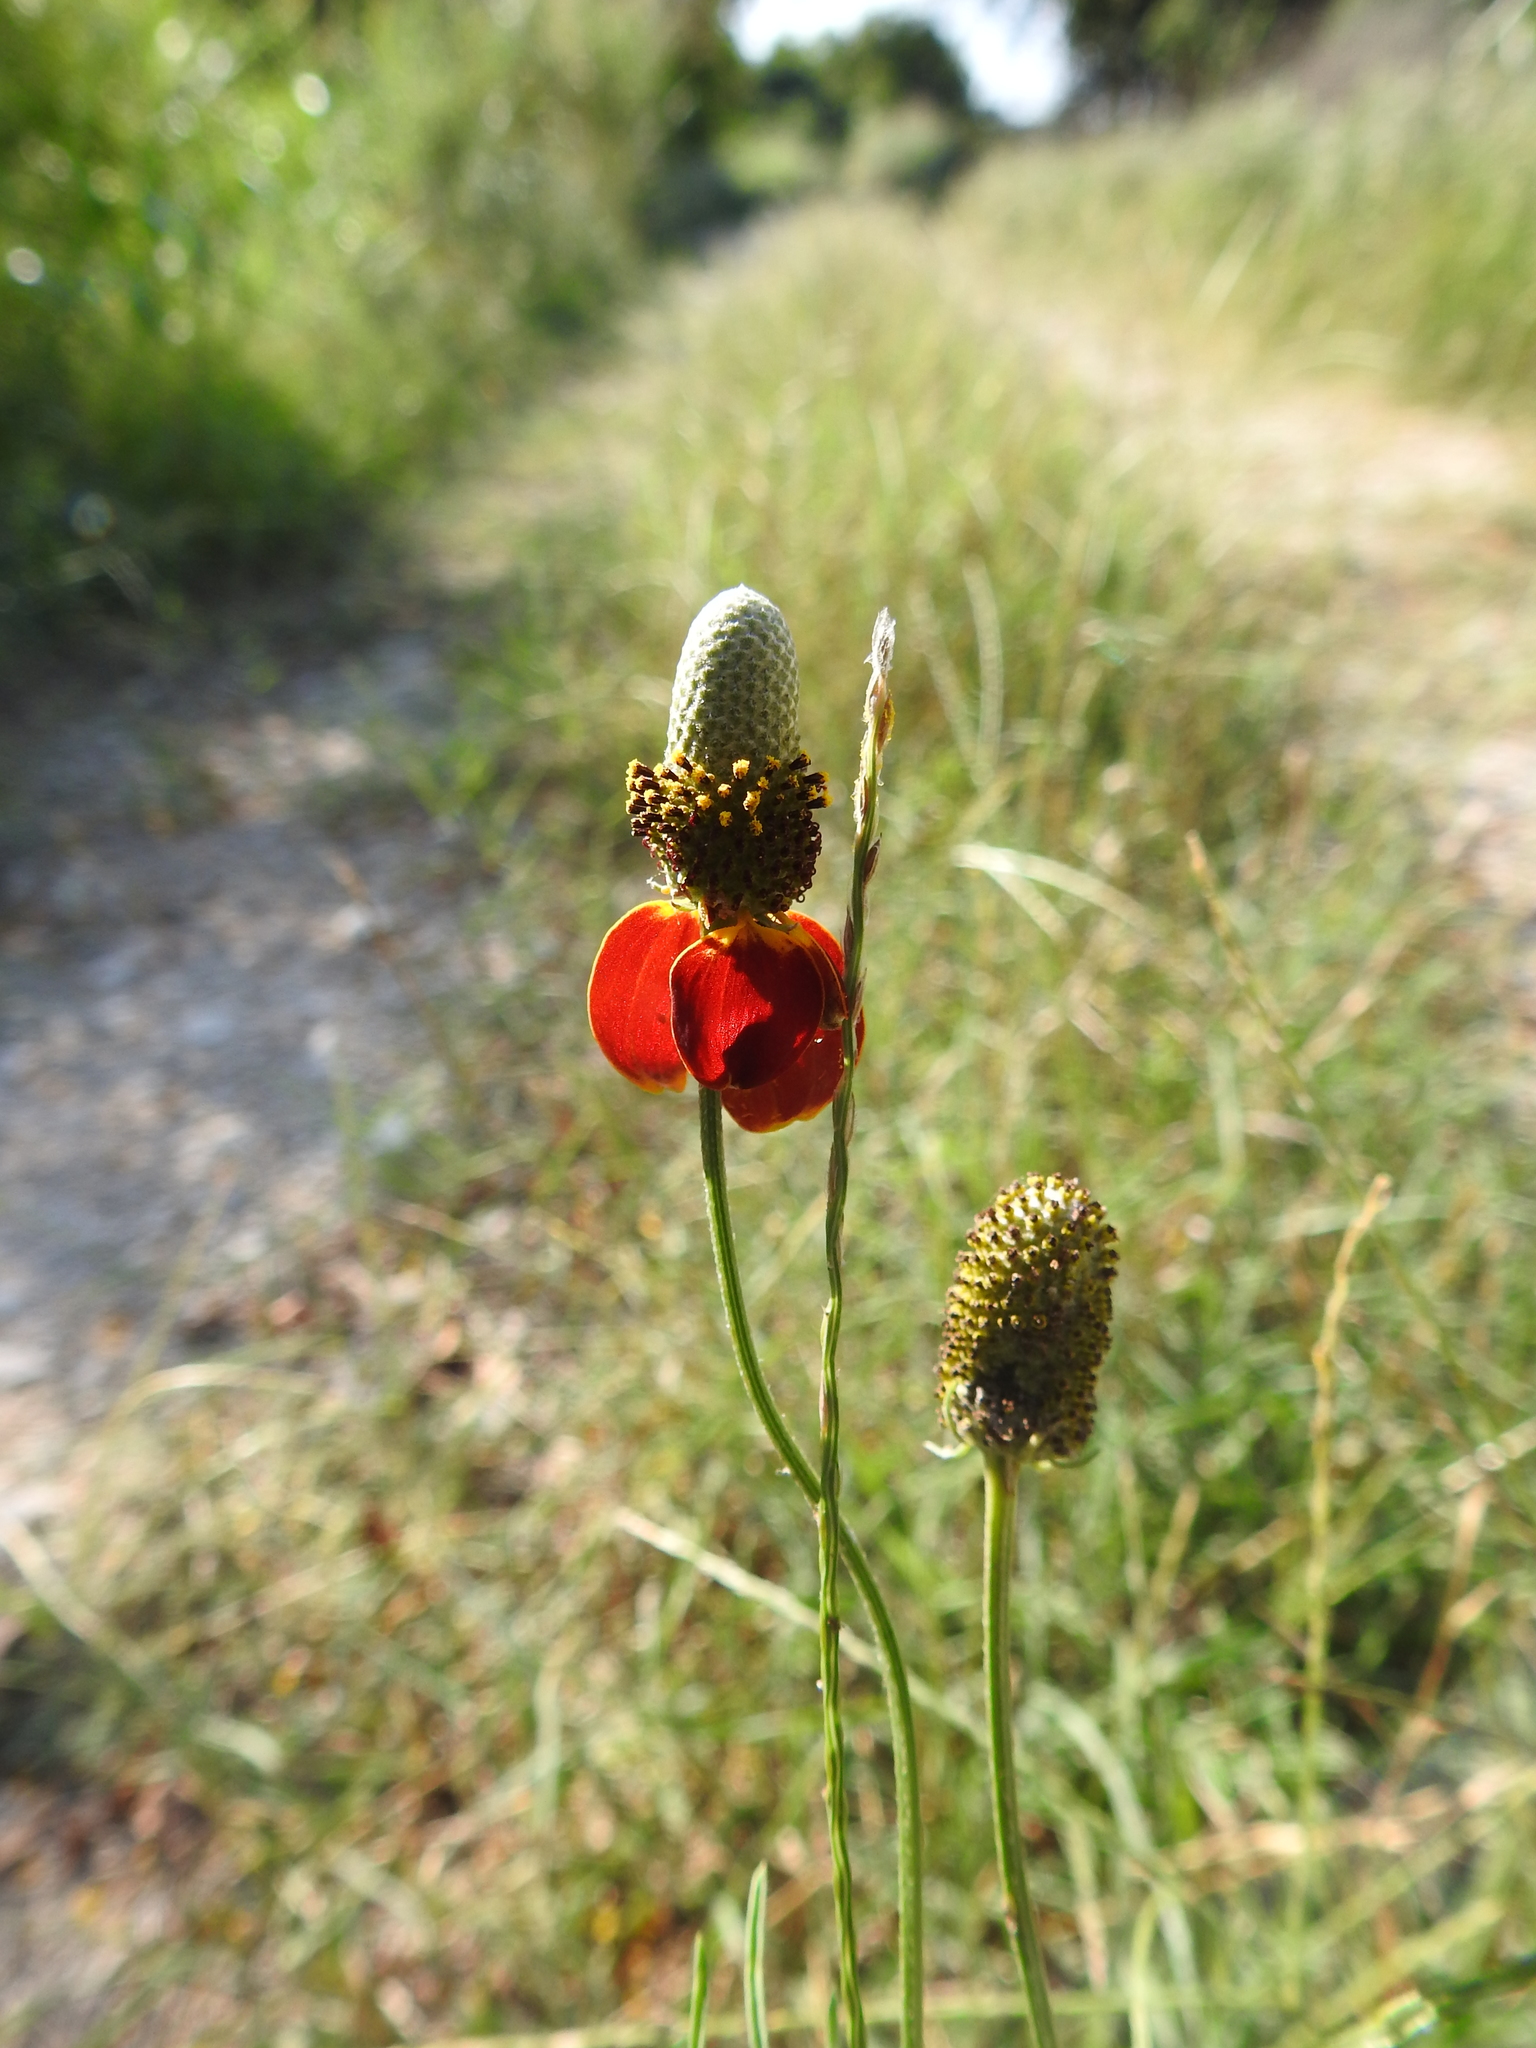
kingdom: Plantae
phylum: Tracheophyta
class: Magnoliopsida
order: Asterales
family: Asteraceae
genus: Ratibida
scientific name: Ratibida columnifera
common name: Prairie coneflower
